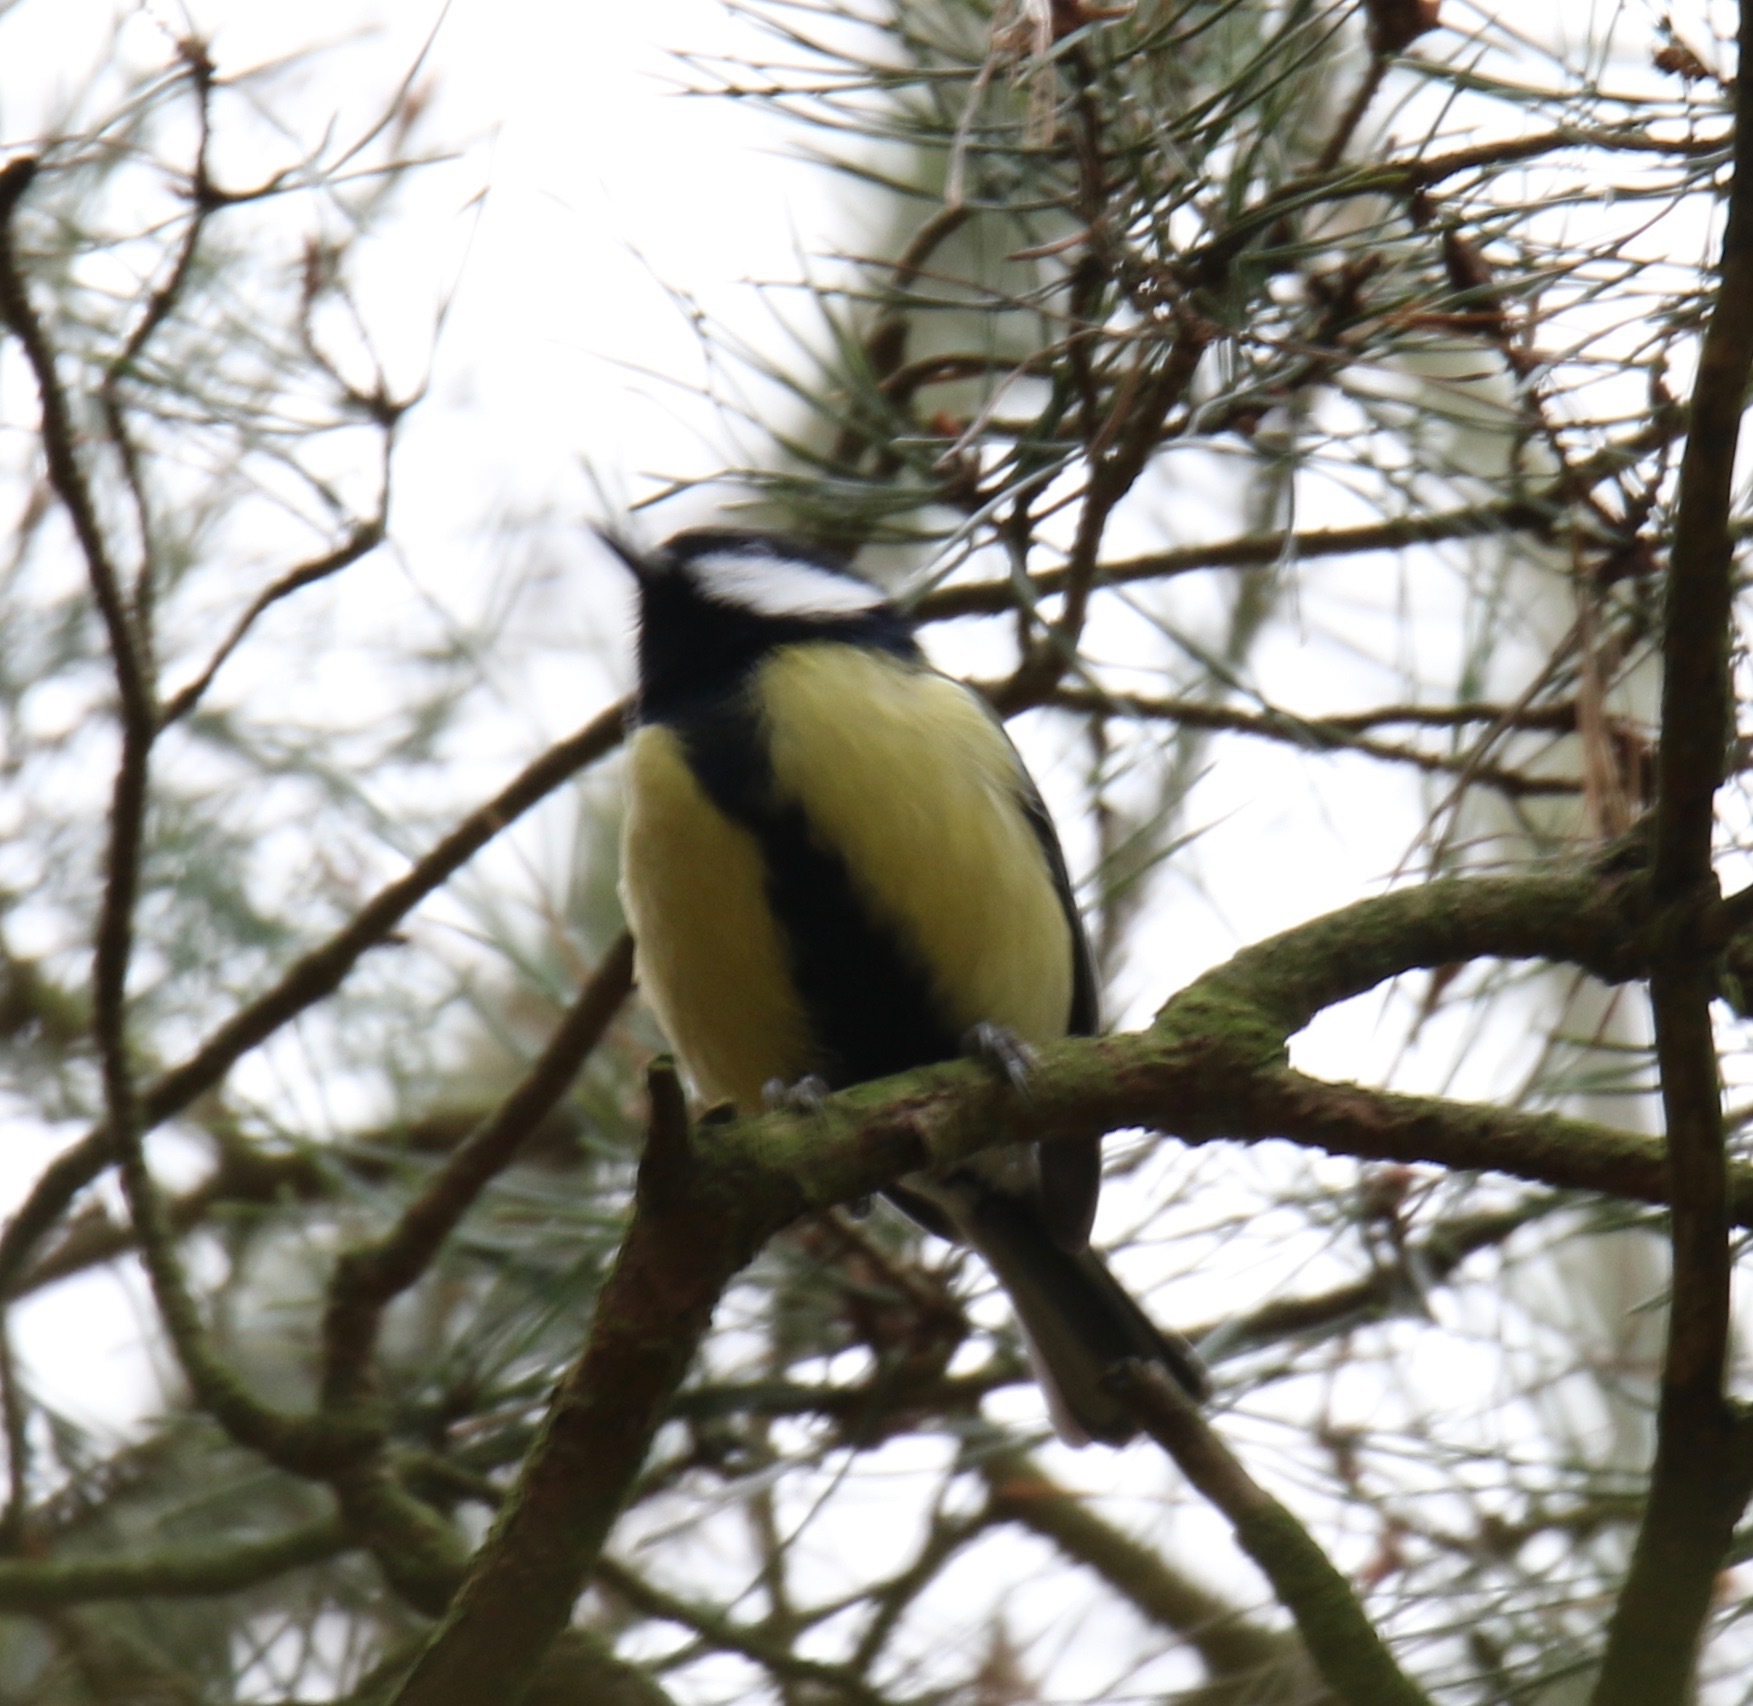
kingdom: Animalia
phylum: Chordata
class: Aves
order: Passeriformes
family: Paridae
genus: Parus
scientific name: Parus major
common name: Great tit
